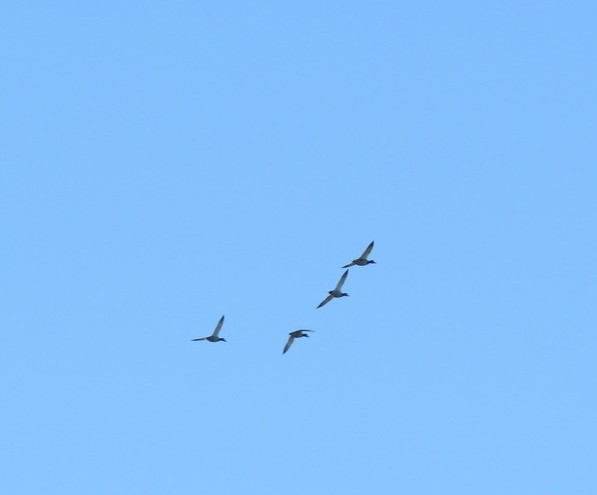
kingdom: Animalia
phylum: Chordata
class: Aves
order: Anseriformes
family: Anatidae
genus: Aythya
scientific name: Aythya ferina
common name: Common pochard
